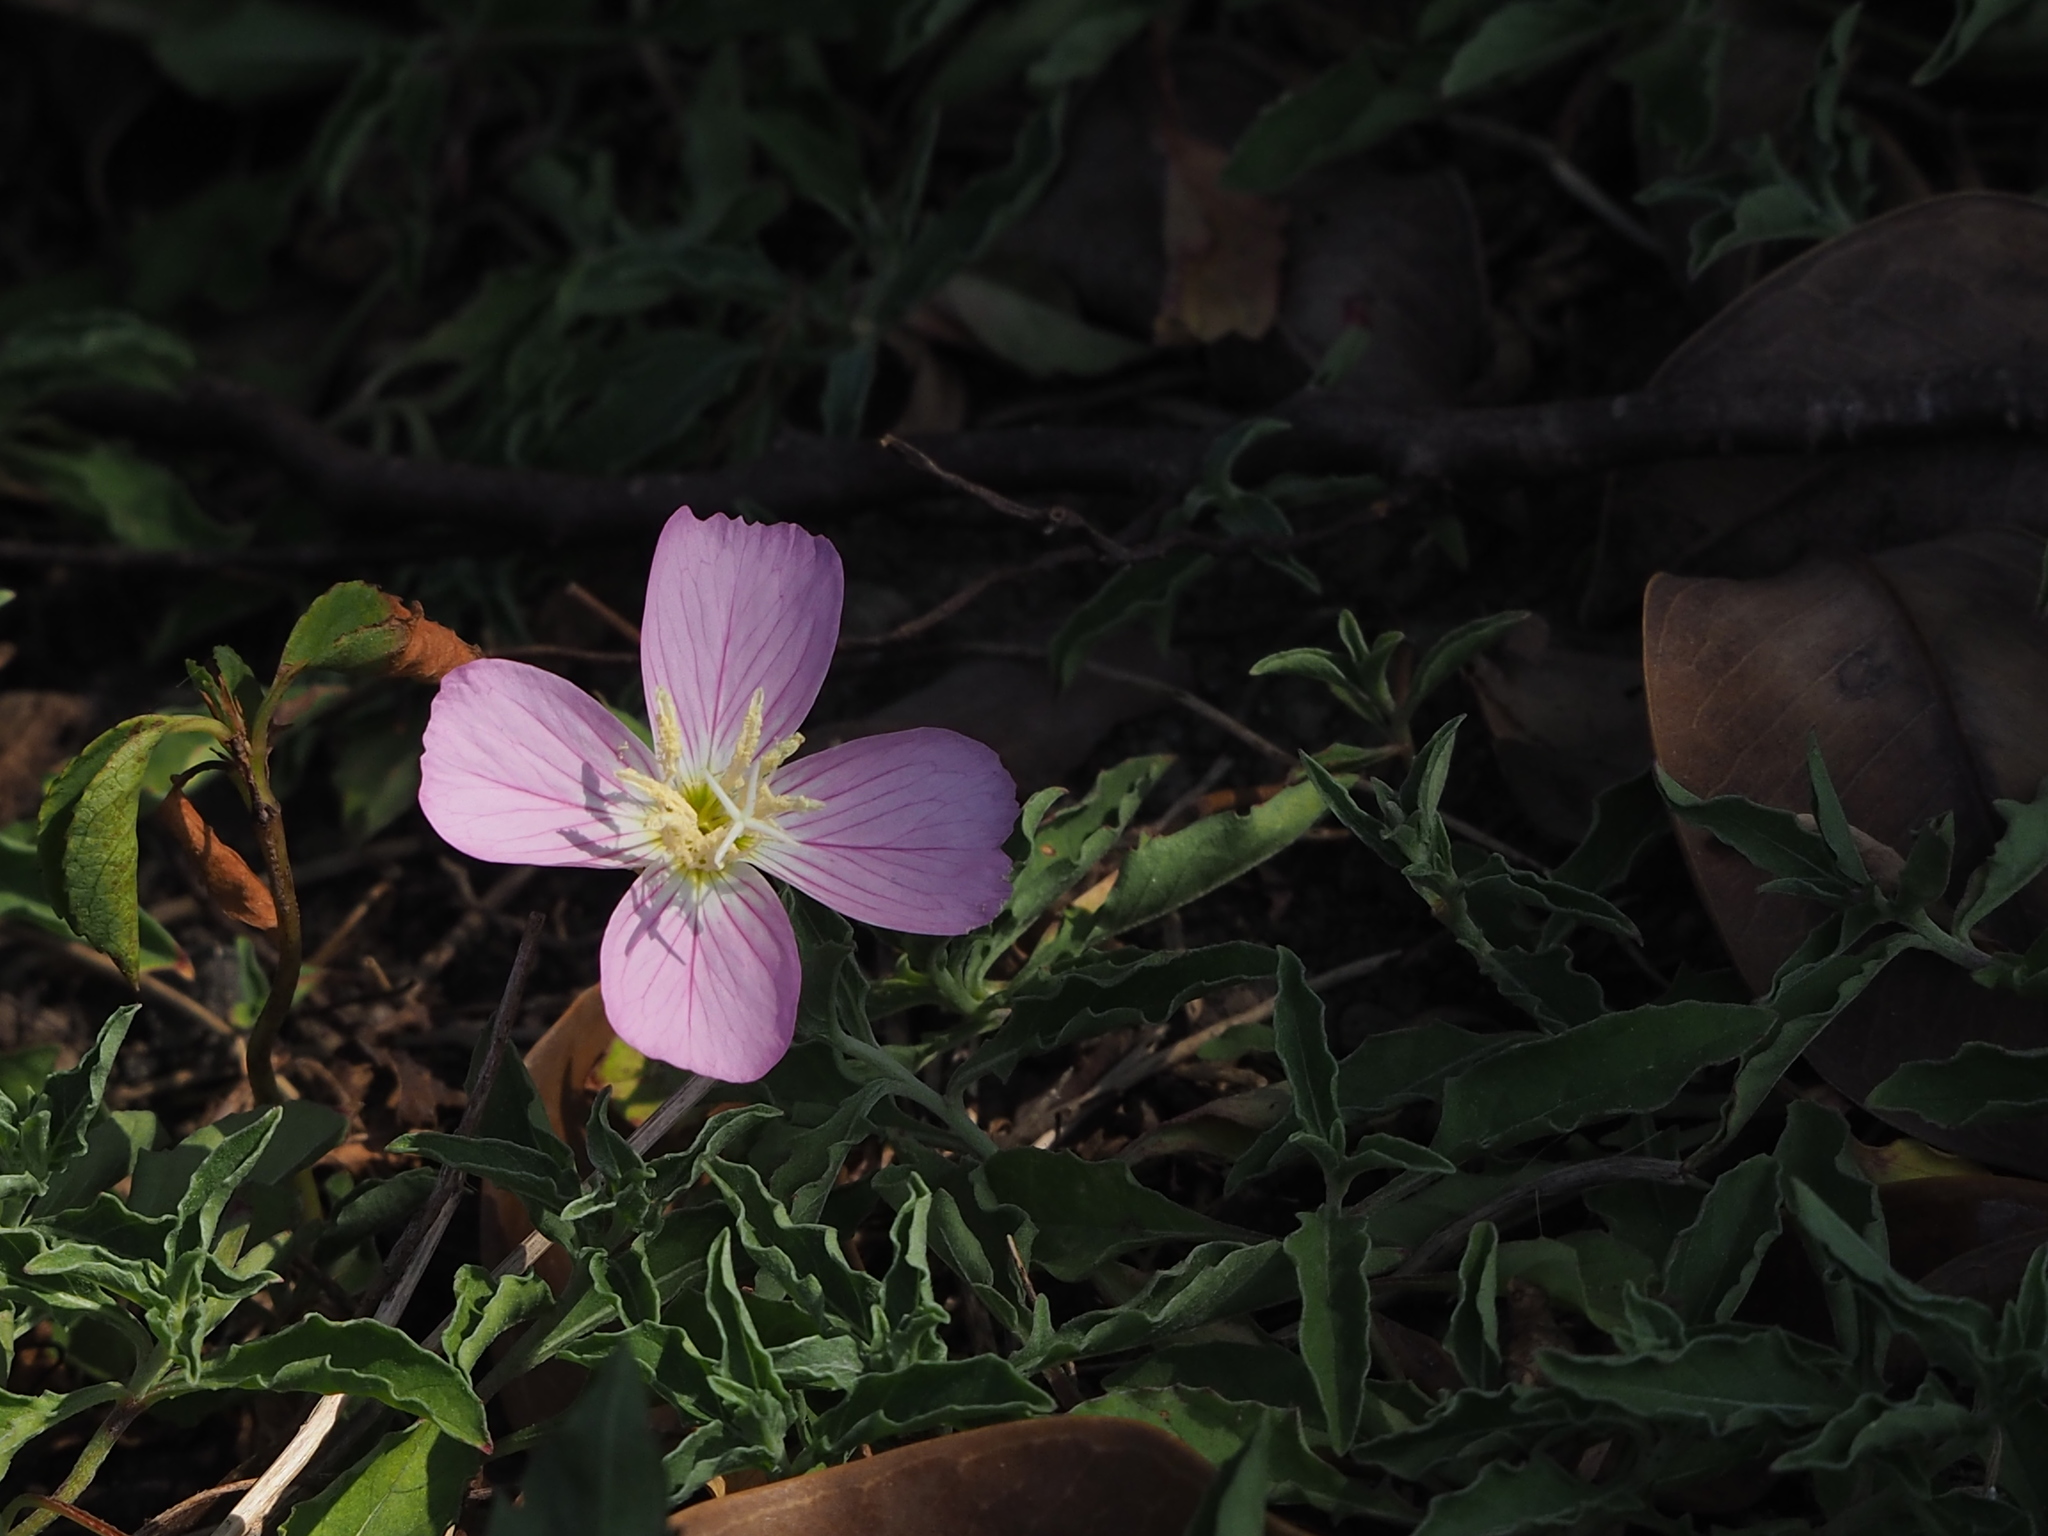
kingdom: Plantae
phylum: Tracheophyta
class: Magnoliopsida
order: Myrtales
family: Onagraceae
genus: Oenothera
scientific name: Oenothera speciosa
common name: White evening-primrose
